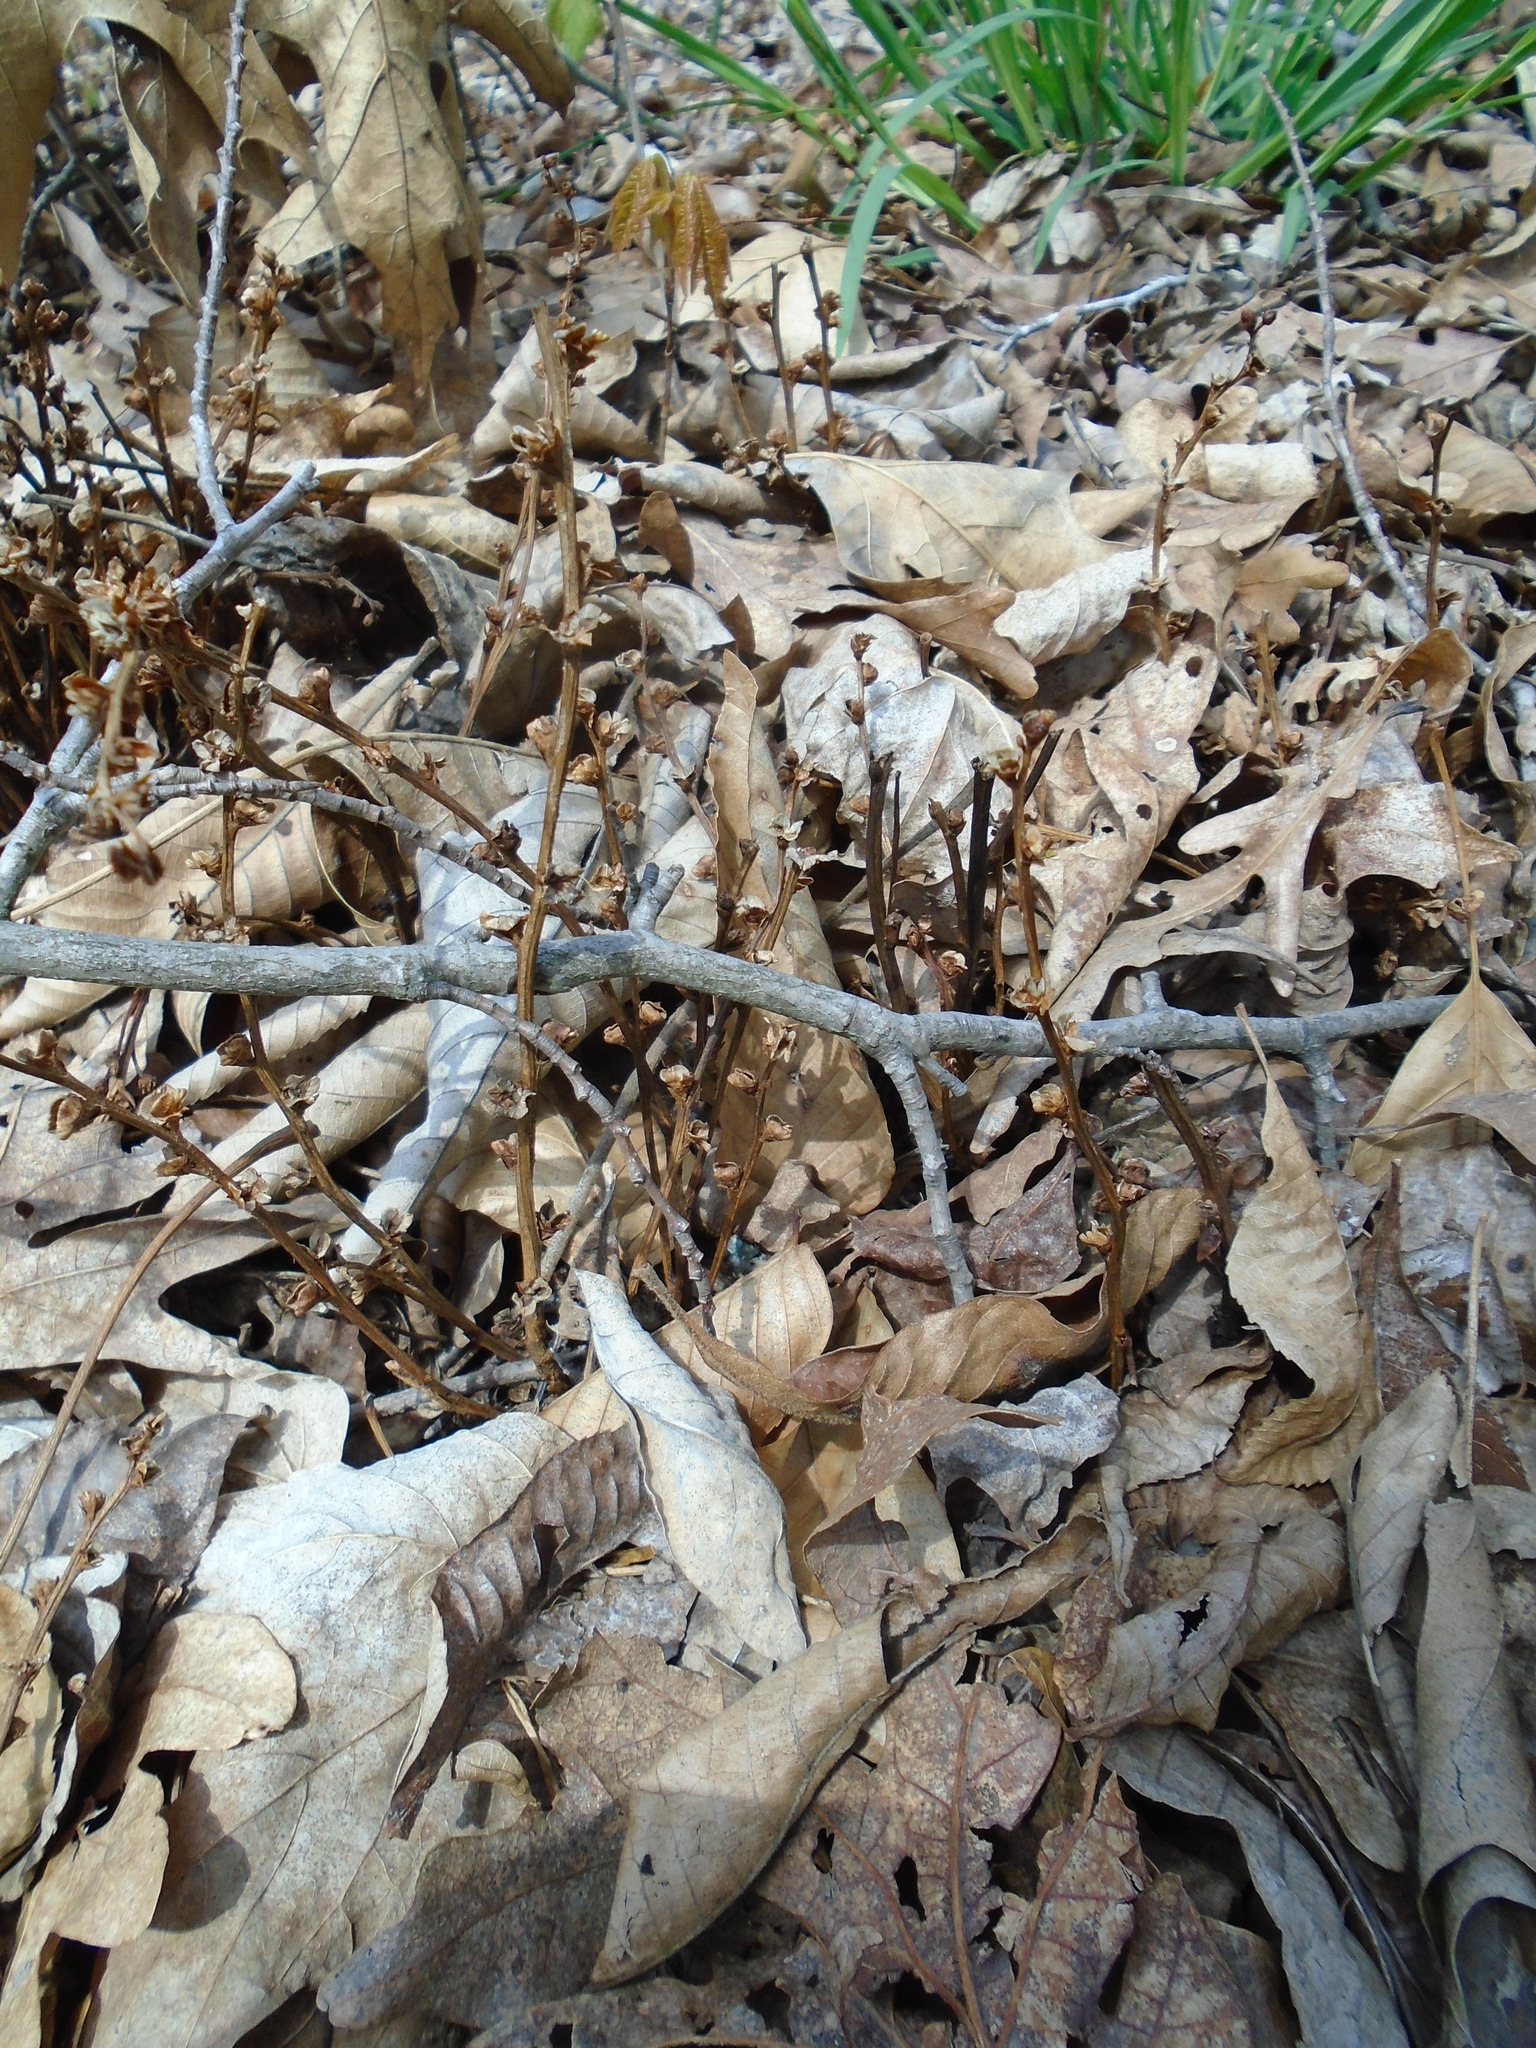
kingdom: Plantae
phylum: Tracheophyta
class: Magnoliopsida
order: Lamiales
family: Orobanchaceae
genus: Epifagus
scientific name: Epifagus virginiana
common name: Beechdrops
